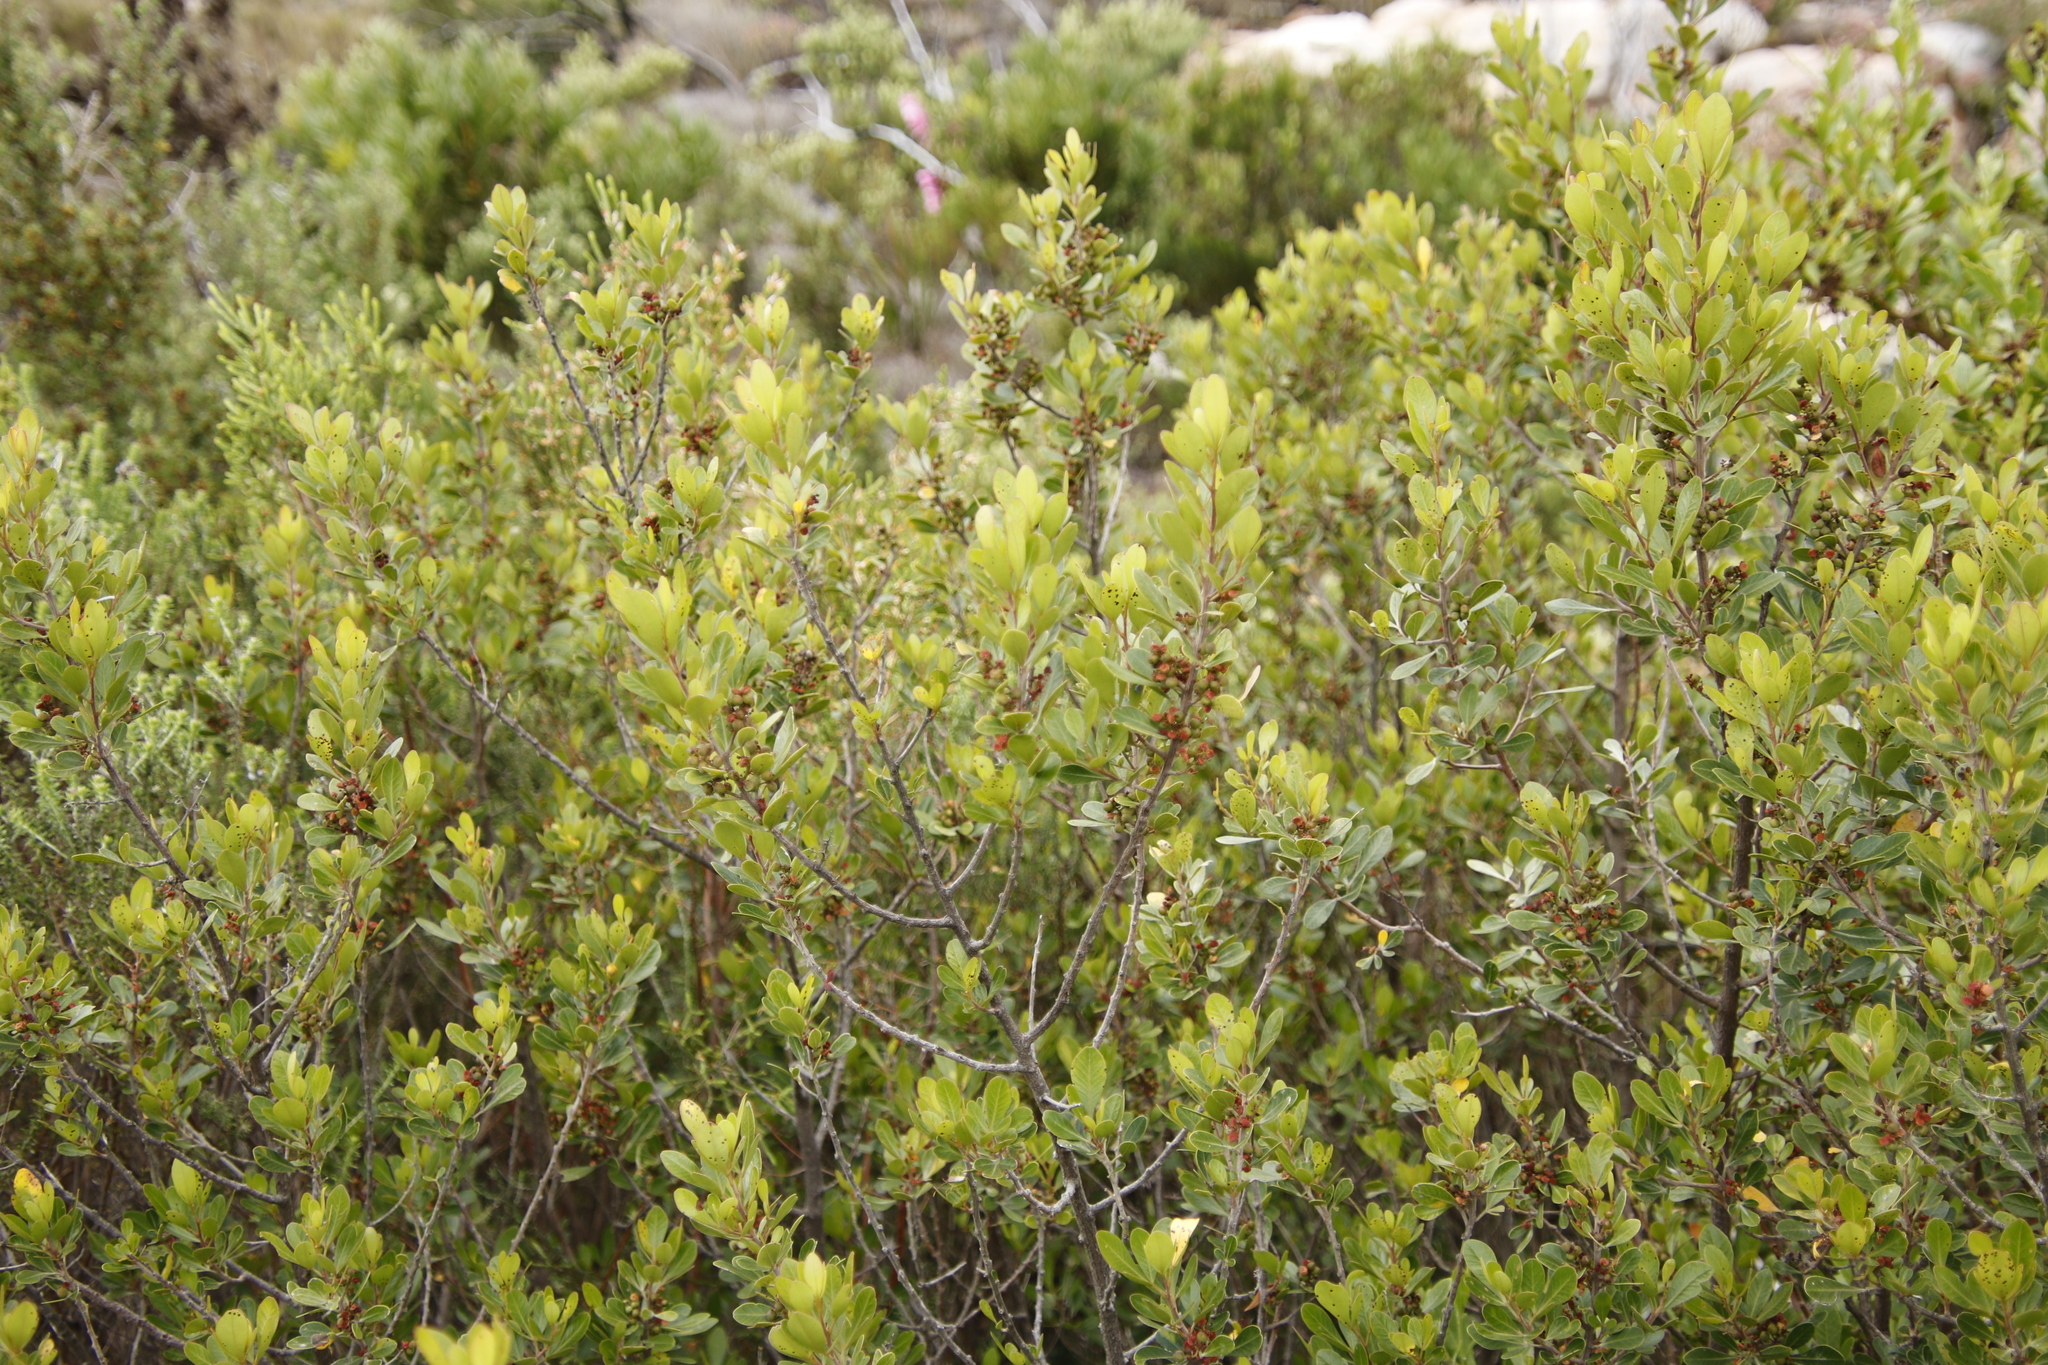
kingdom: Plantae
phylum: Tracheophyta
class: Magnoliopsida
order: Sapindales
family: Anacardiaceae
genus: Searsia
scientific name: Searsia lucida
